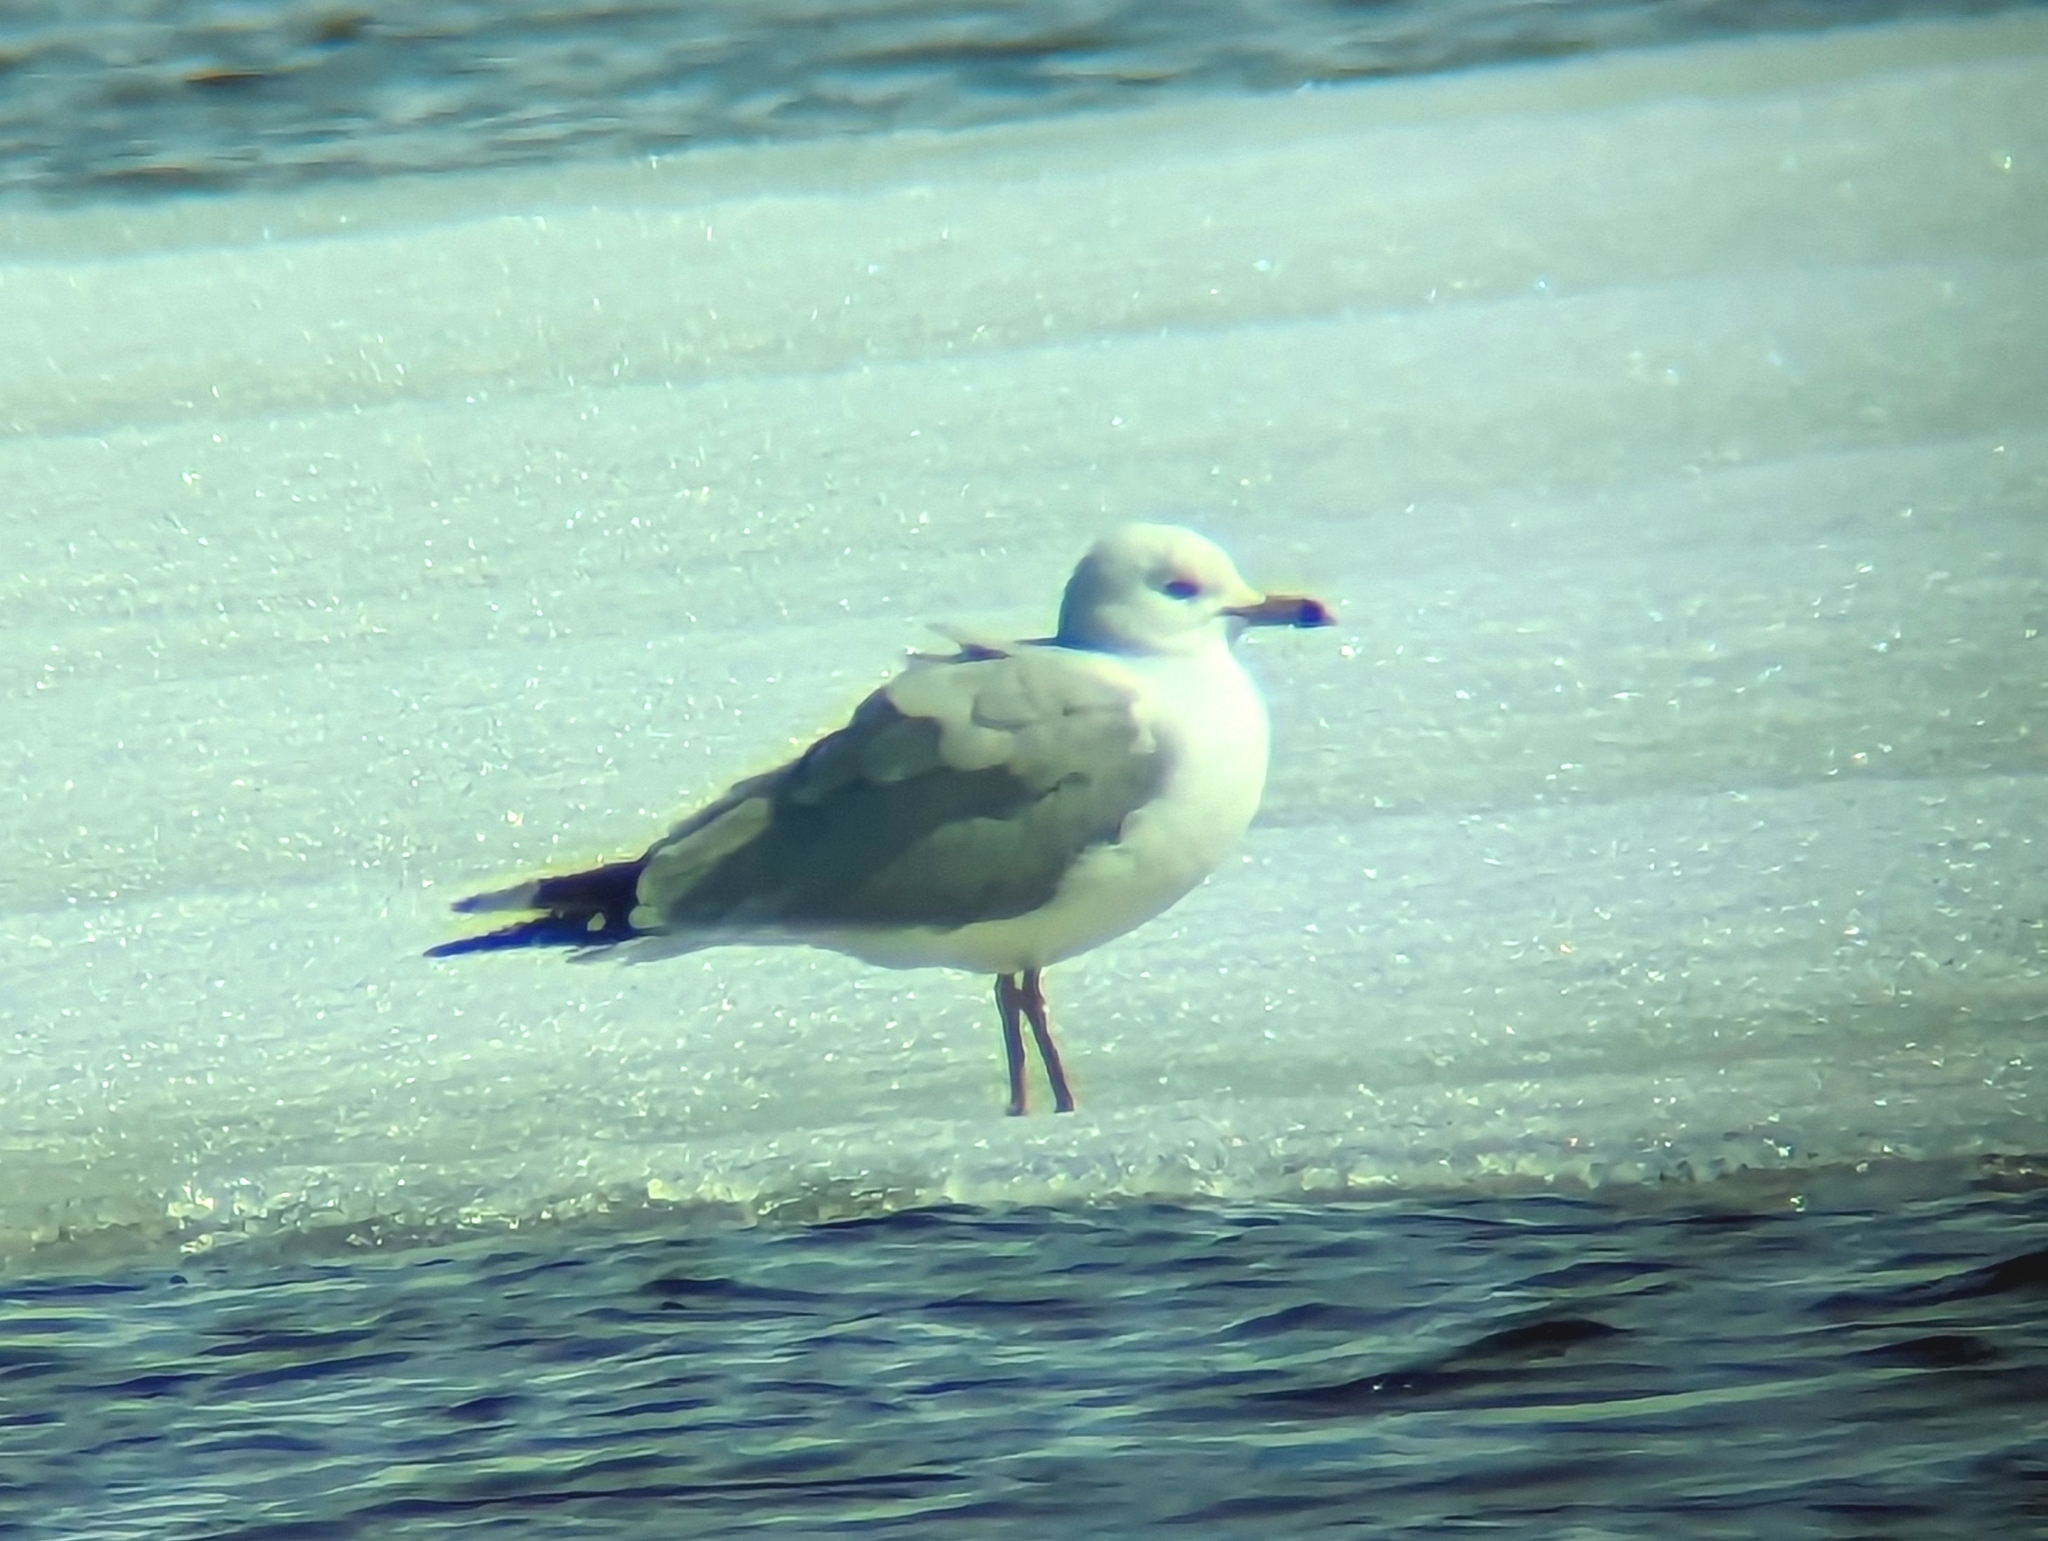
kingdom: Animalia
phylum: Chordata
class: Aves
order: Charadriiformes
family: Laridae
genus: Larus
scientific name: Larus delawarensis
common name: Ring-billed gull
